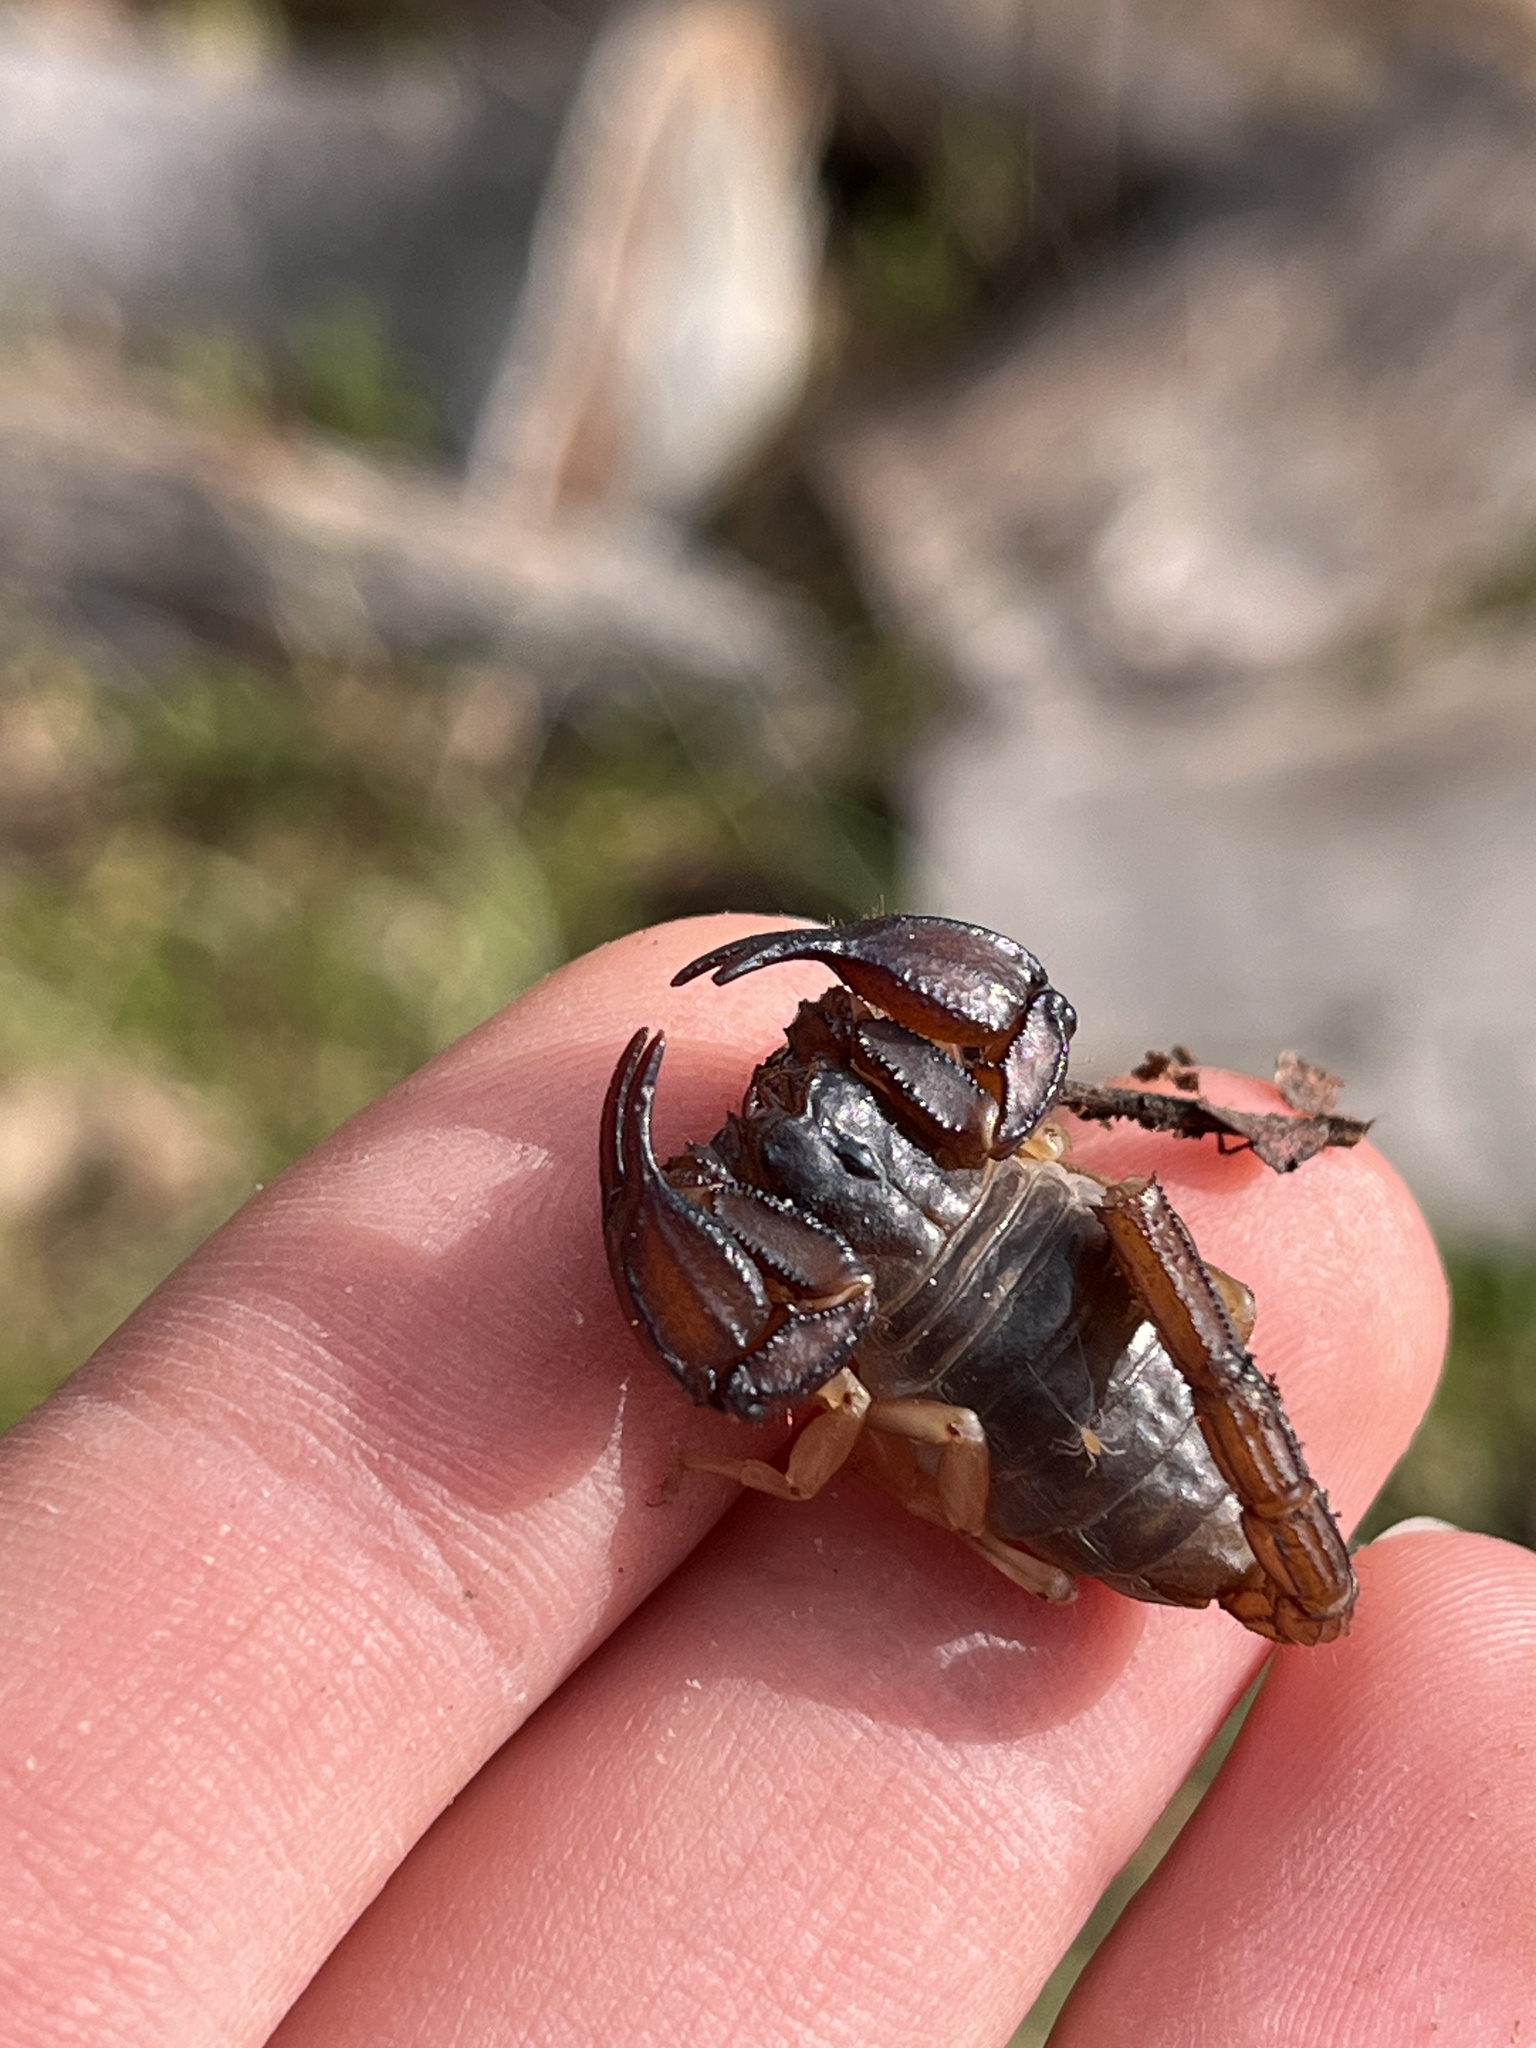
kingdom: Animalia
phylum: Arthropoda
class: Arachnida
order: Scorpiones
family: Chactidae
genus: Uroctonus
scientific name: Uroctonus mordax
